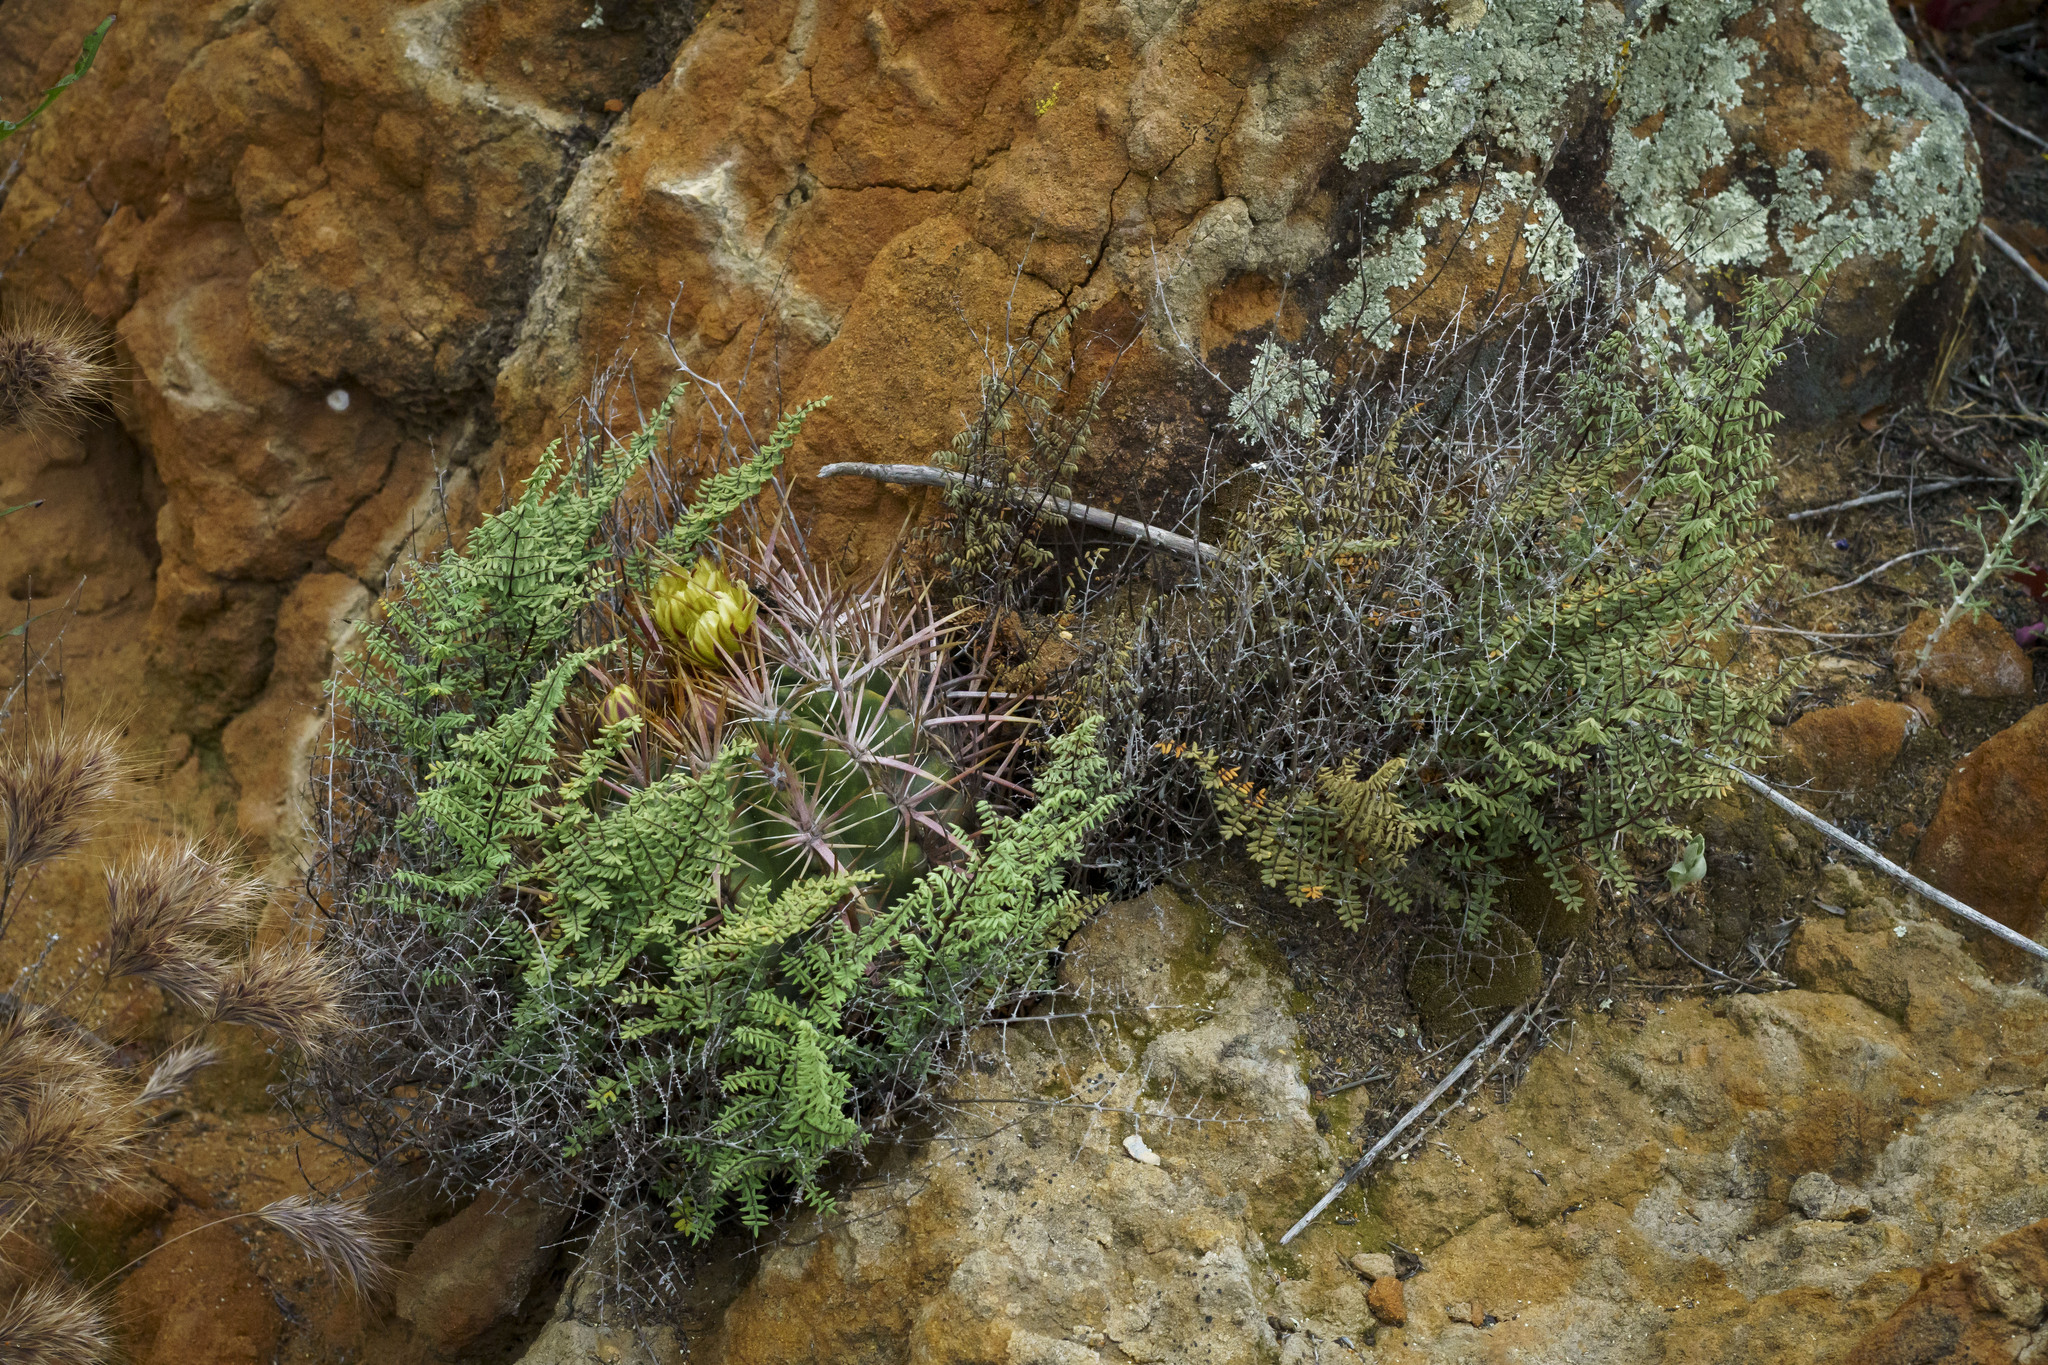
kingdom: Plantae
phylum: Tracheophyta
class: Polypodiopsida
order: Polypodiales
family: Pteridaceae
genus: Pellaea
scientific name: Pellaea mucronata
